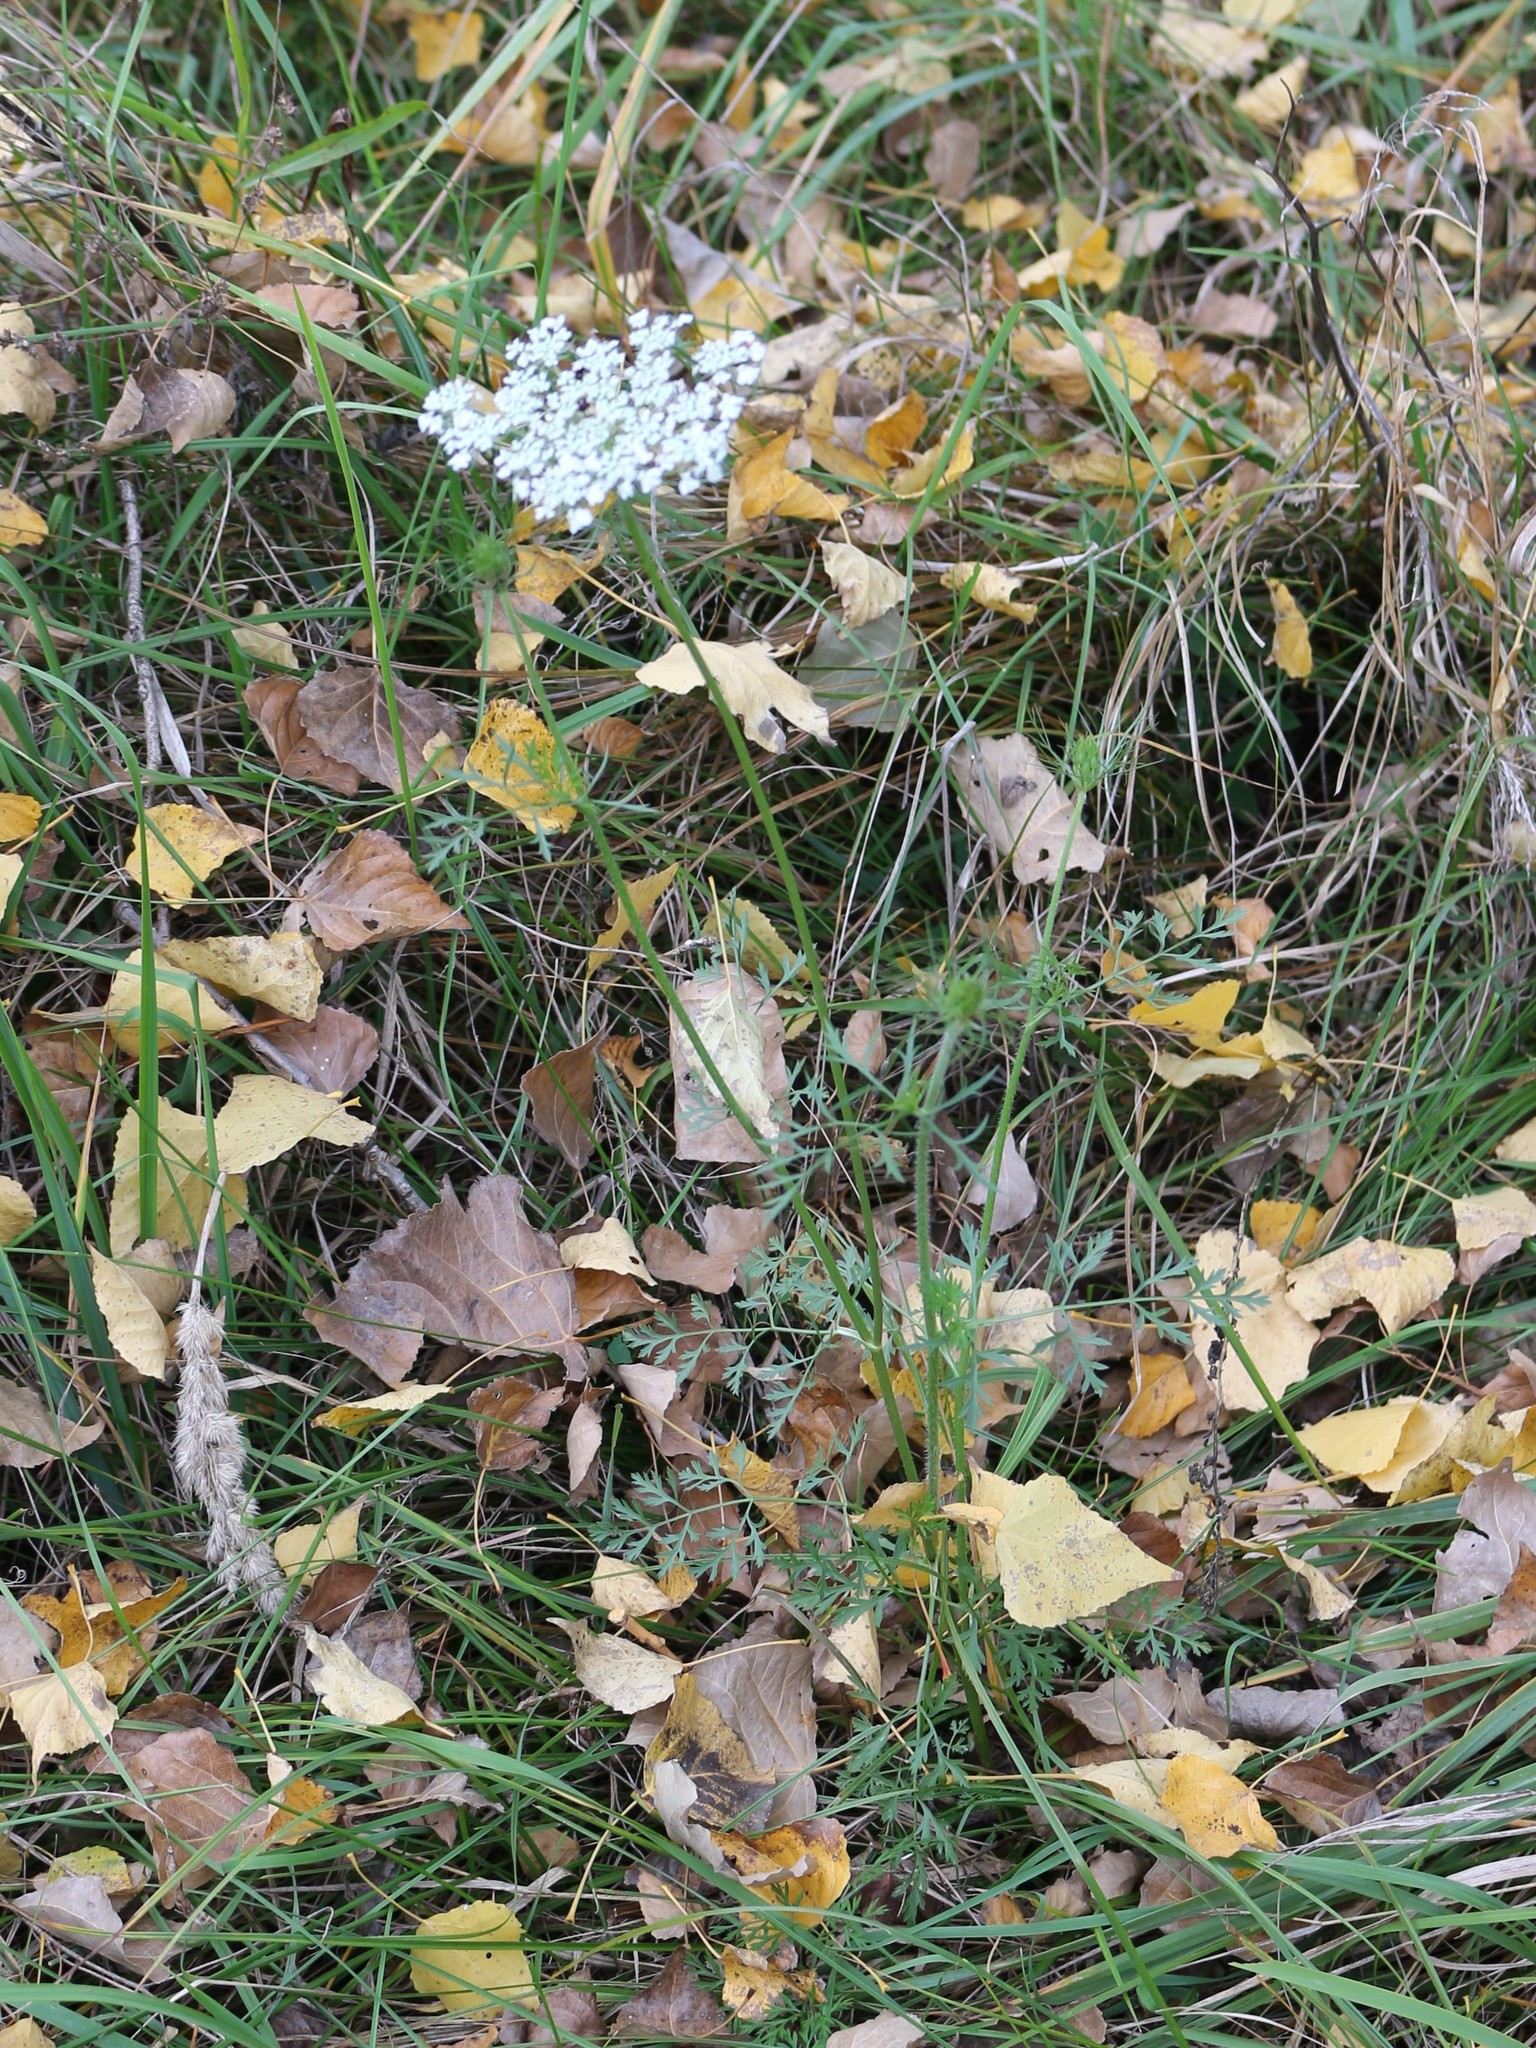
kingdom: Plantae
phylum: Tracheophyta
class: Magnoliopsida
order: Apiales
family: Apiaceae
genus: Daucus
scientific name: Daucus carota
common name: Wild carrot
